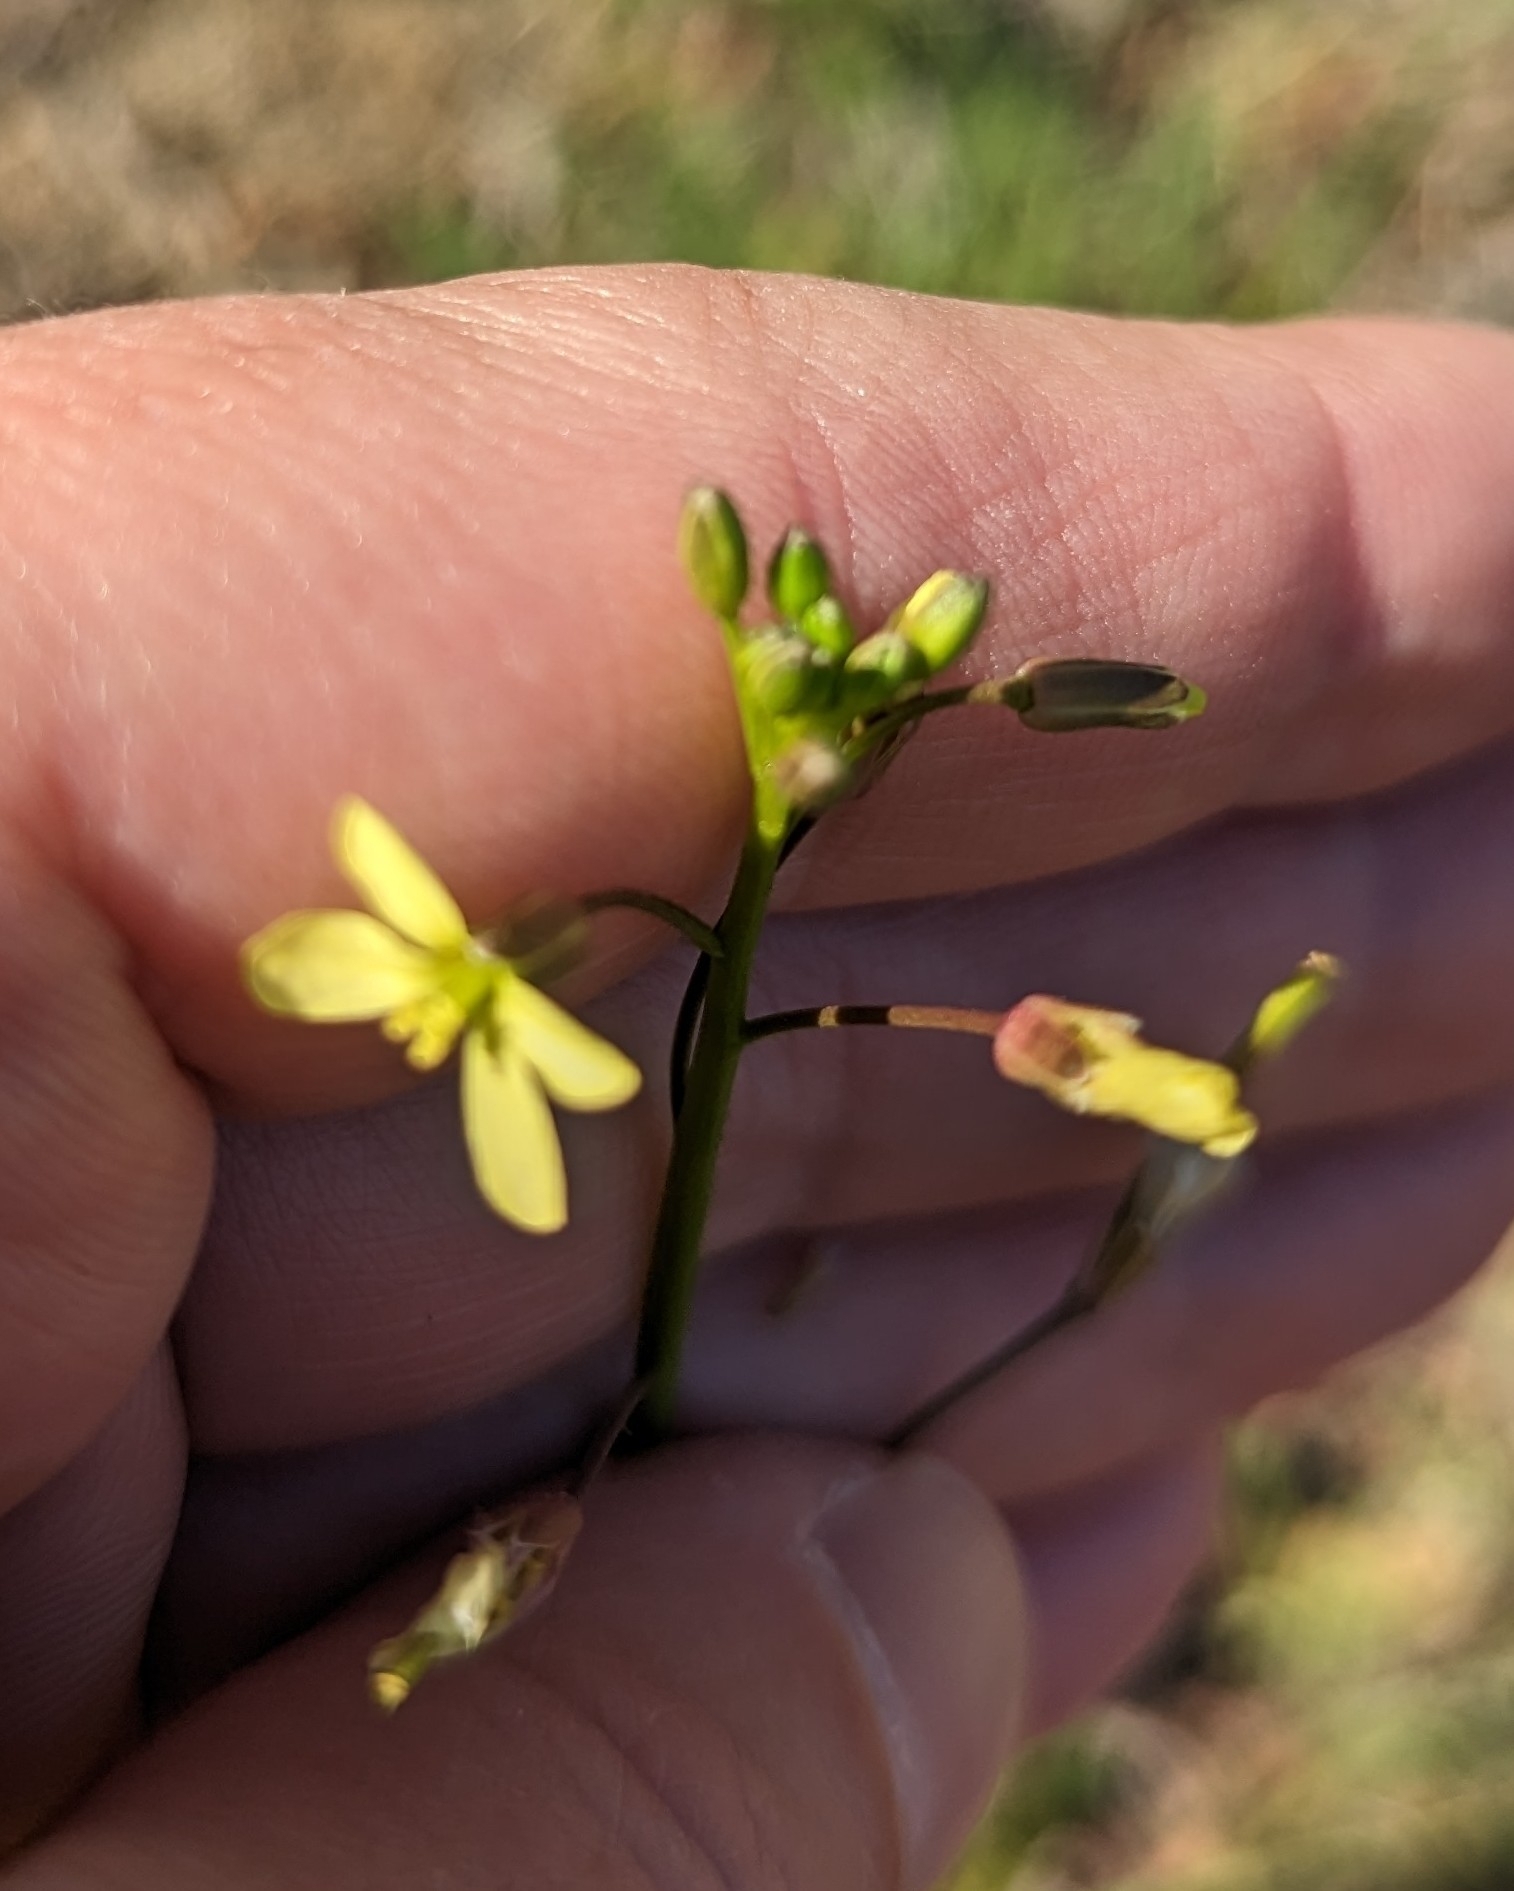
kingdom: Plantae
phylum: Tracheophyta
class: Magnoliopsida
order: Brassicales
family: Brassicaceae
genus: Brassica
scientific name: Brassica tournefortii
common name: Pale cabbage
